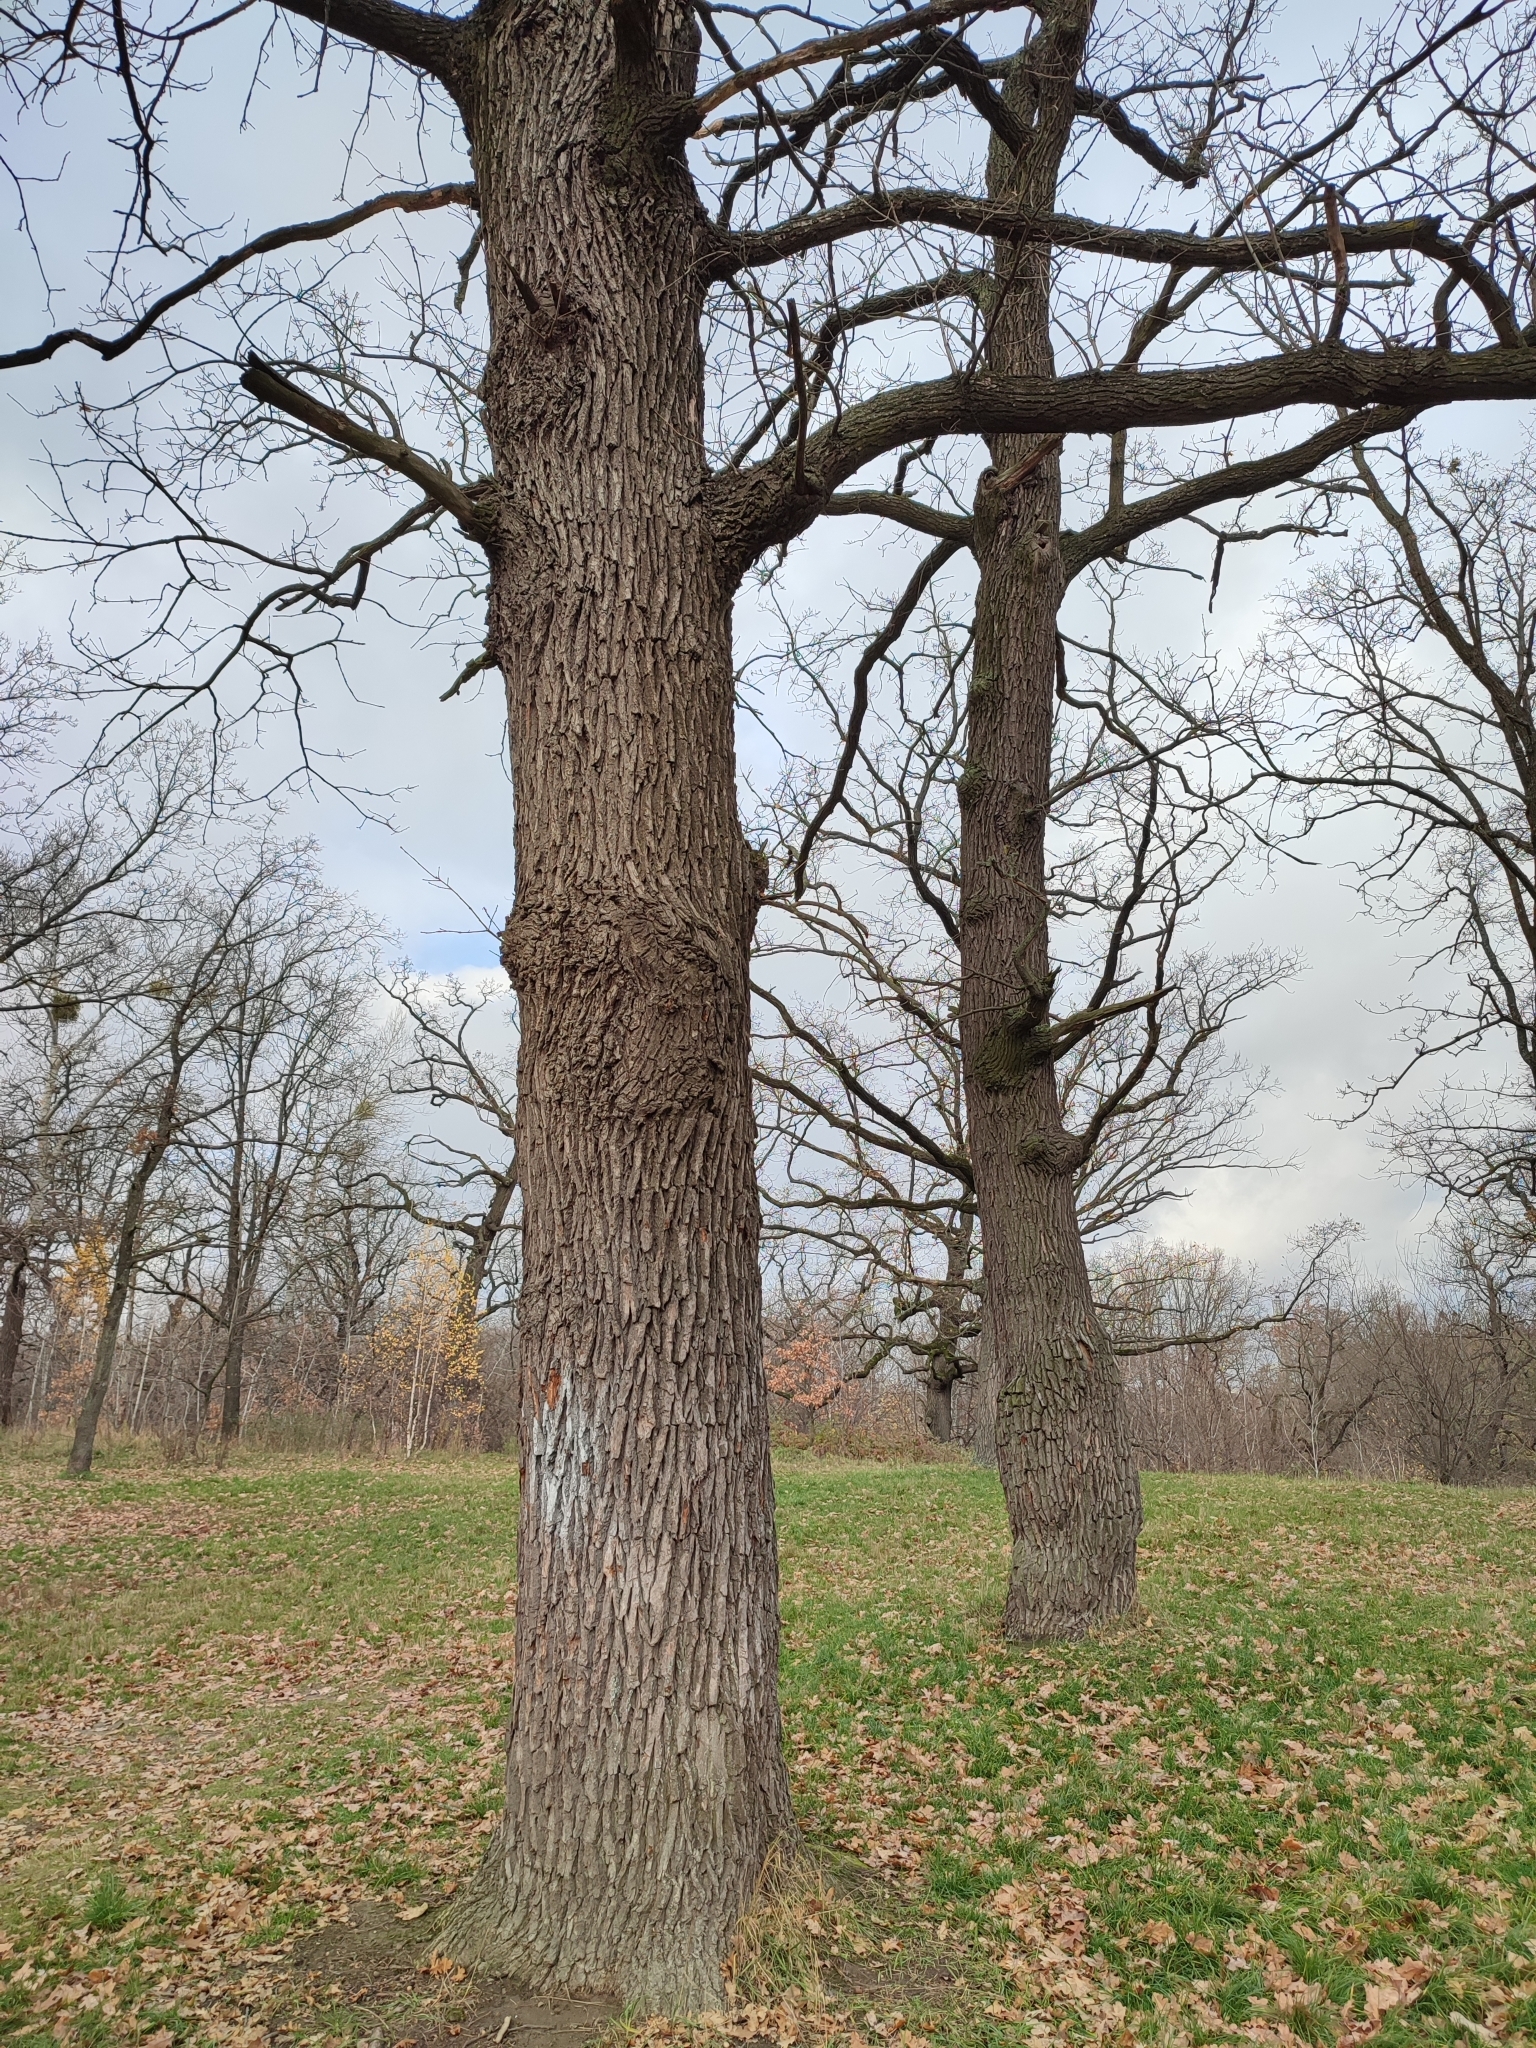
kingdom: Plantae
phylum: Tracheophyta
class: Magnoliopsida
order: Fagales
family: Fagaceae
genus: Quercus
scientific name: Quercus robur
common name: Pedunculate oak
